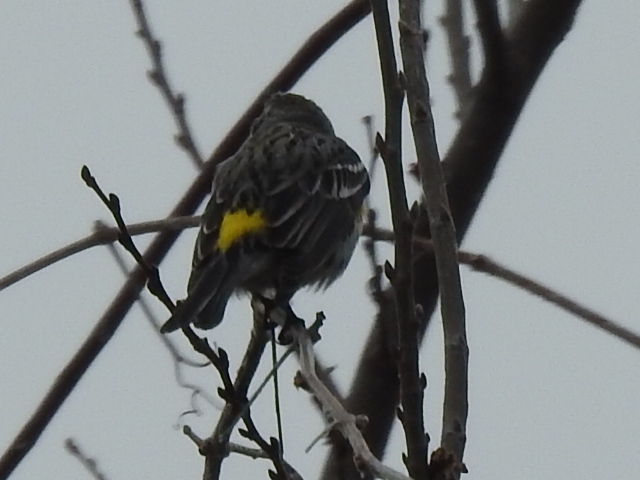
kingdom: Animalia
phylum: Chordata
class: Aves
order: Passeriformes
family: Parulidae
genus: Setophaga
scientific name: Setophaga coronata
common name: Myrtle warbler
